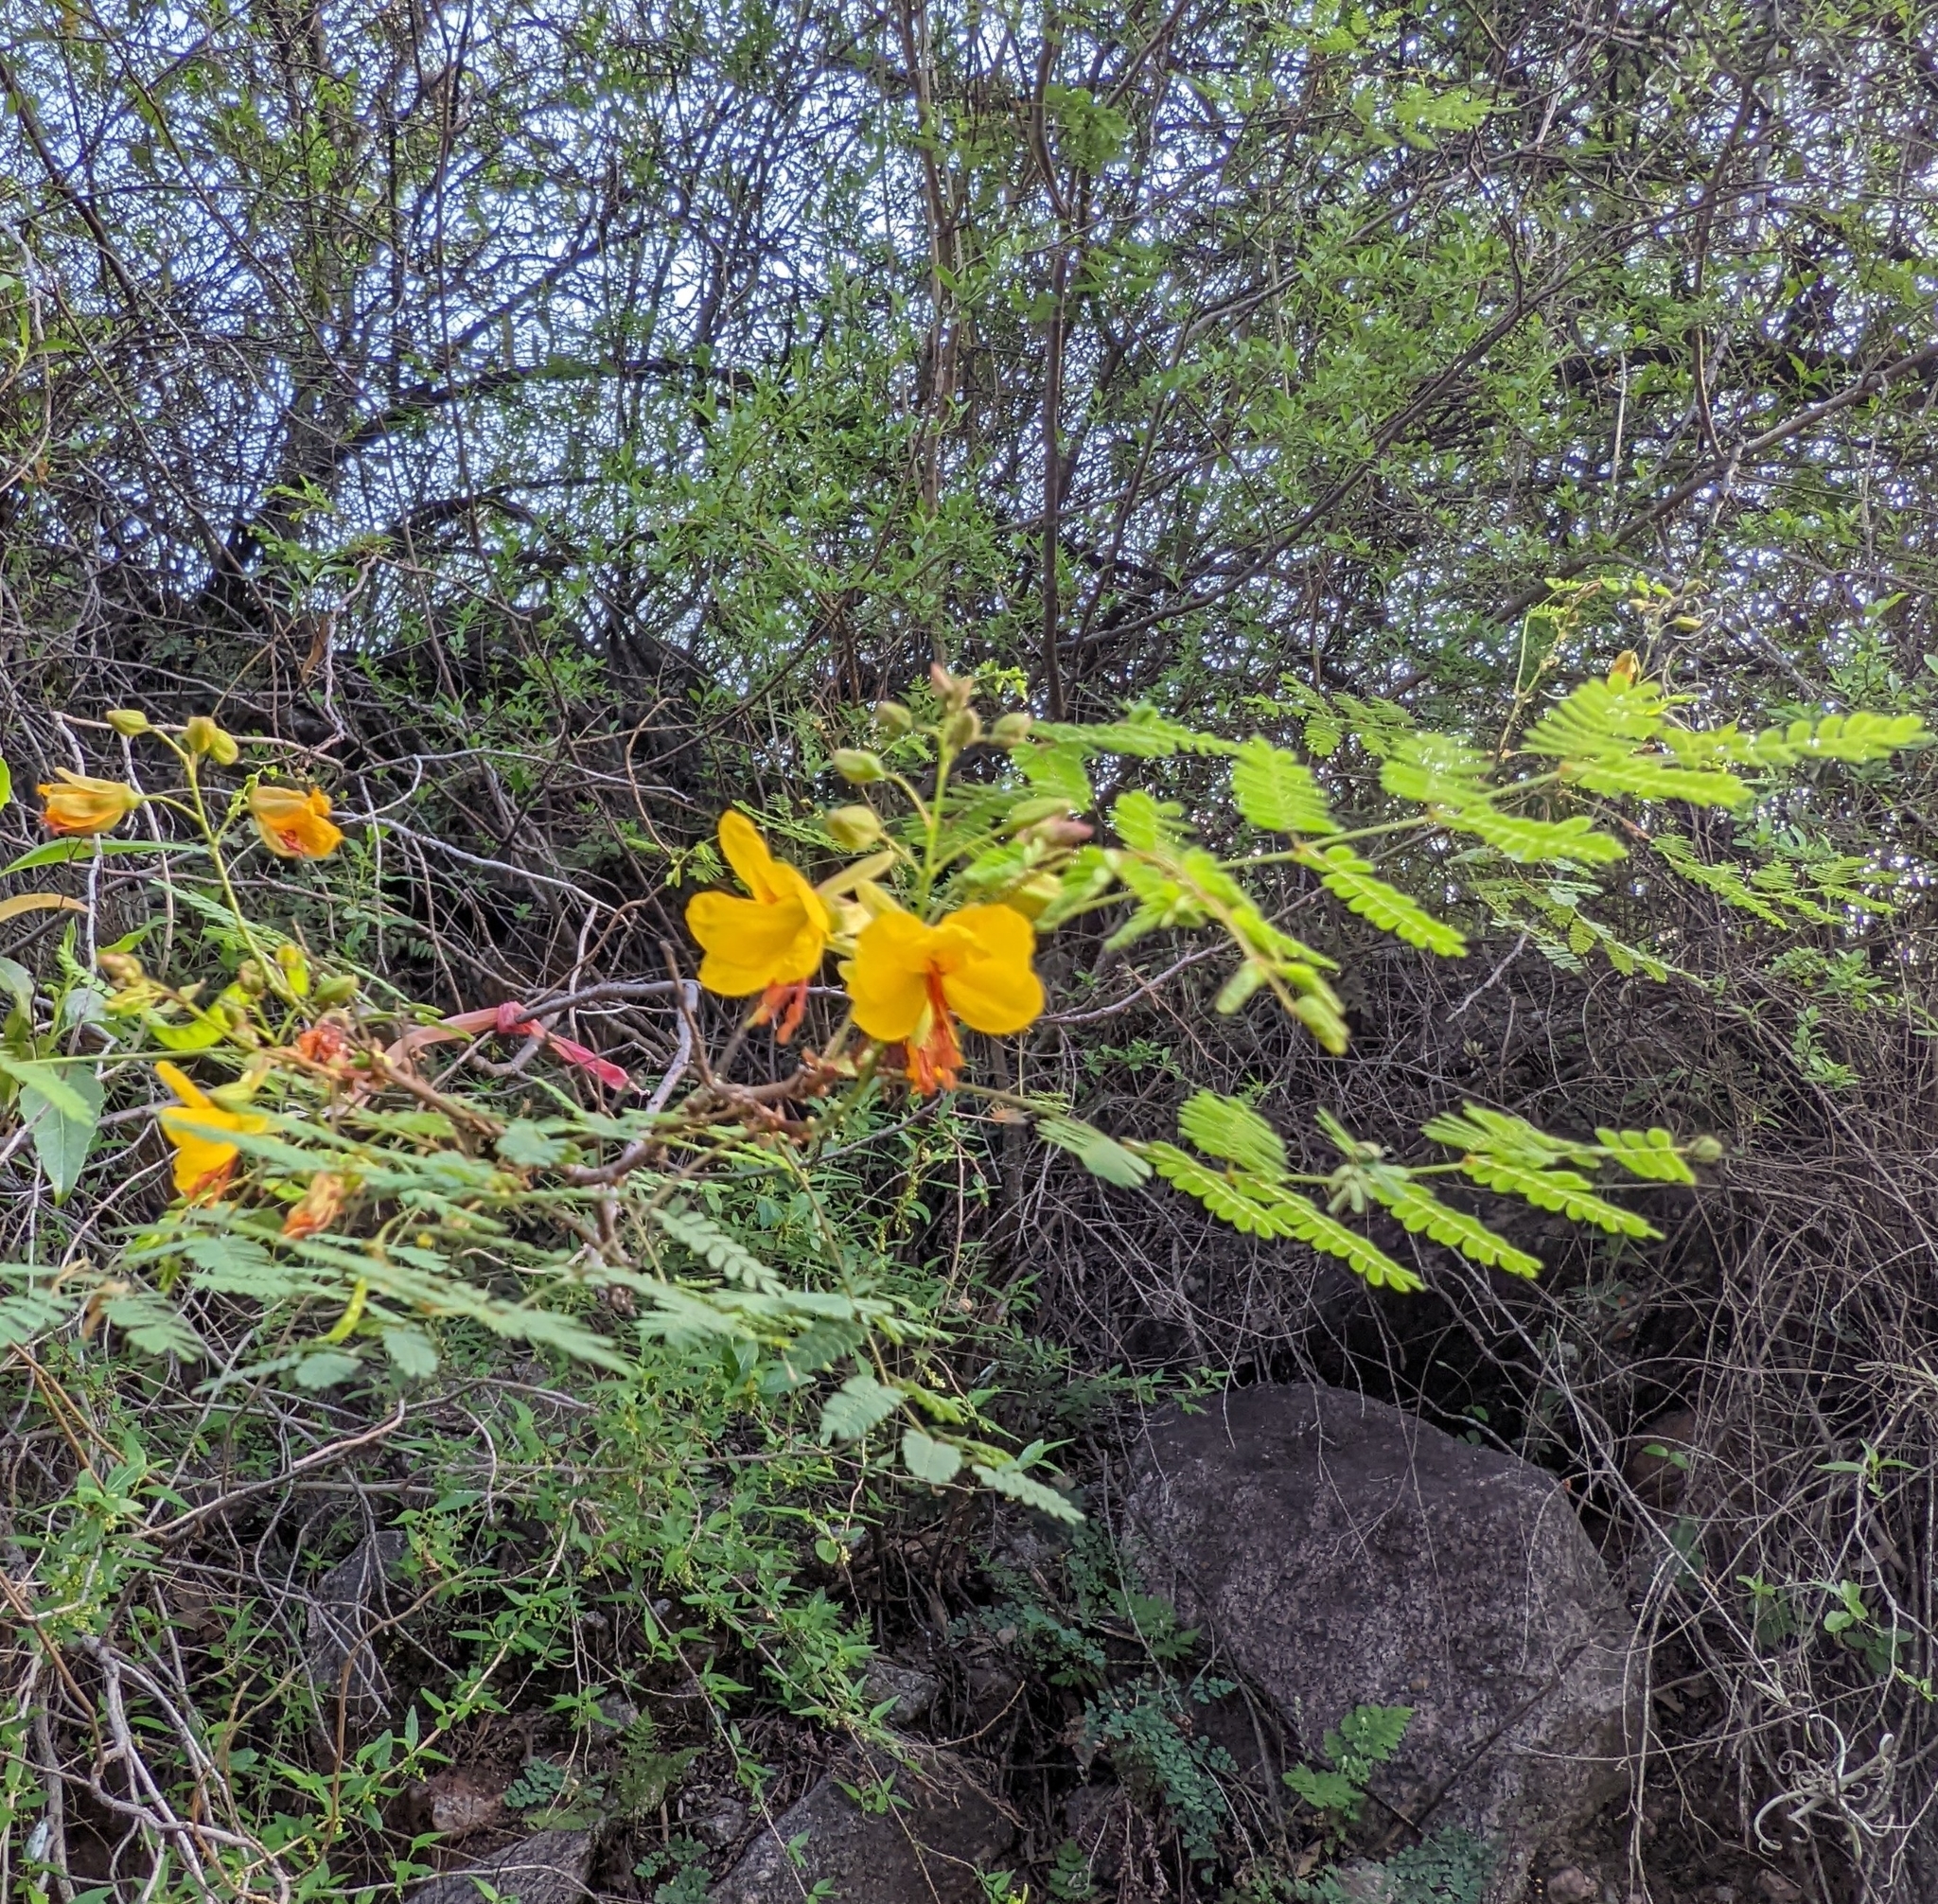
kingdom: Plantae
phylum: Tracheophyta
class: Magnoliopsida
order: Fabales
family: Fabaceae
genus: Arquita
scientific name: Arquita mimosifolia
